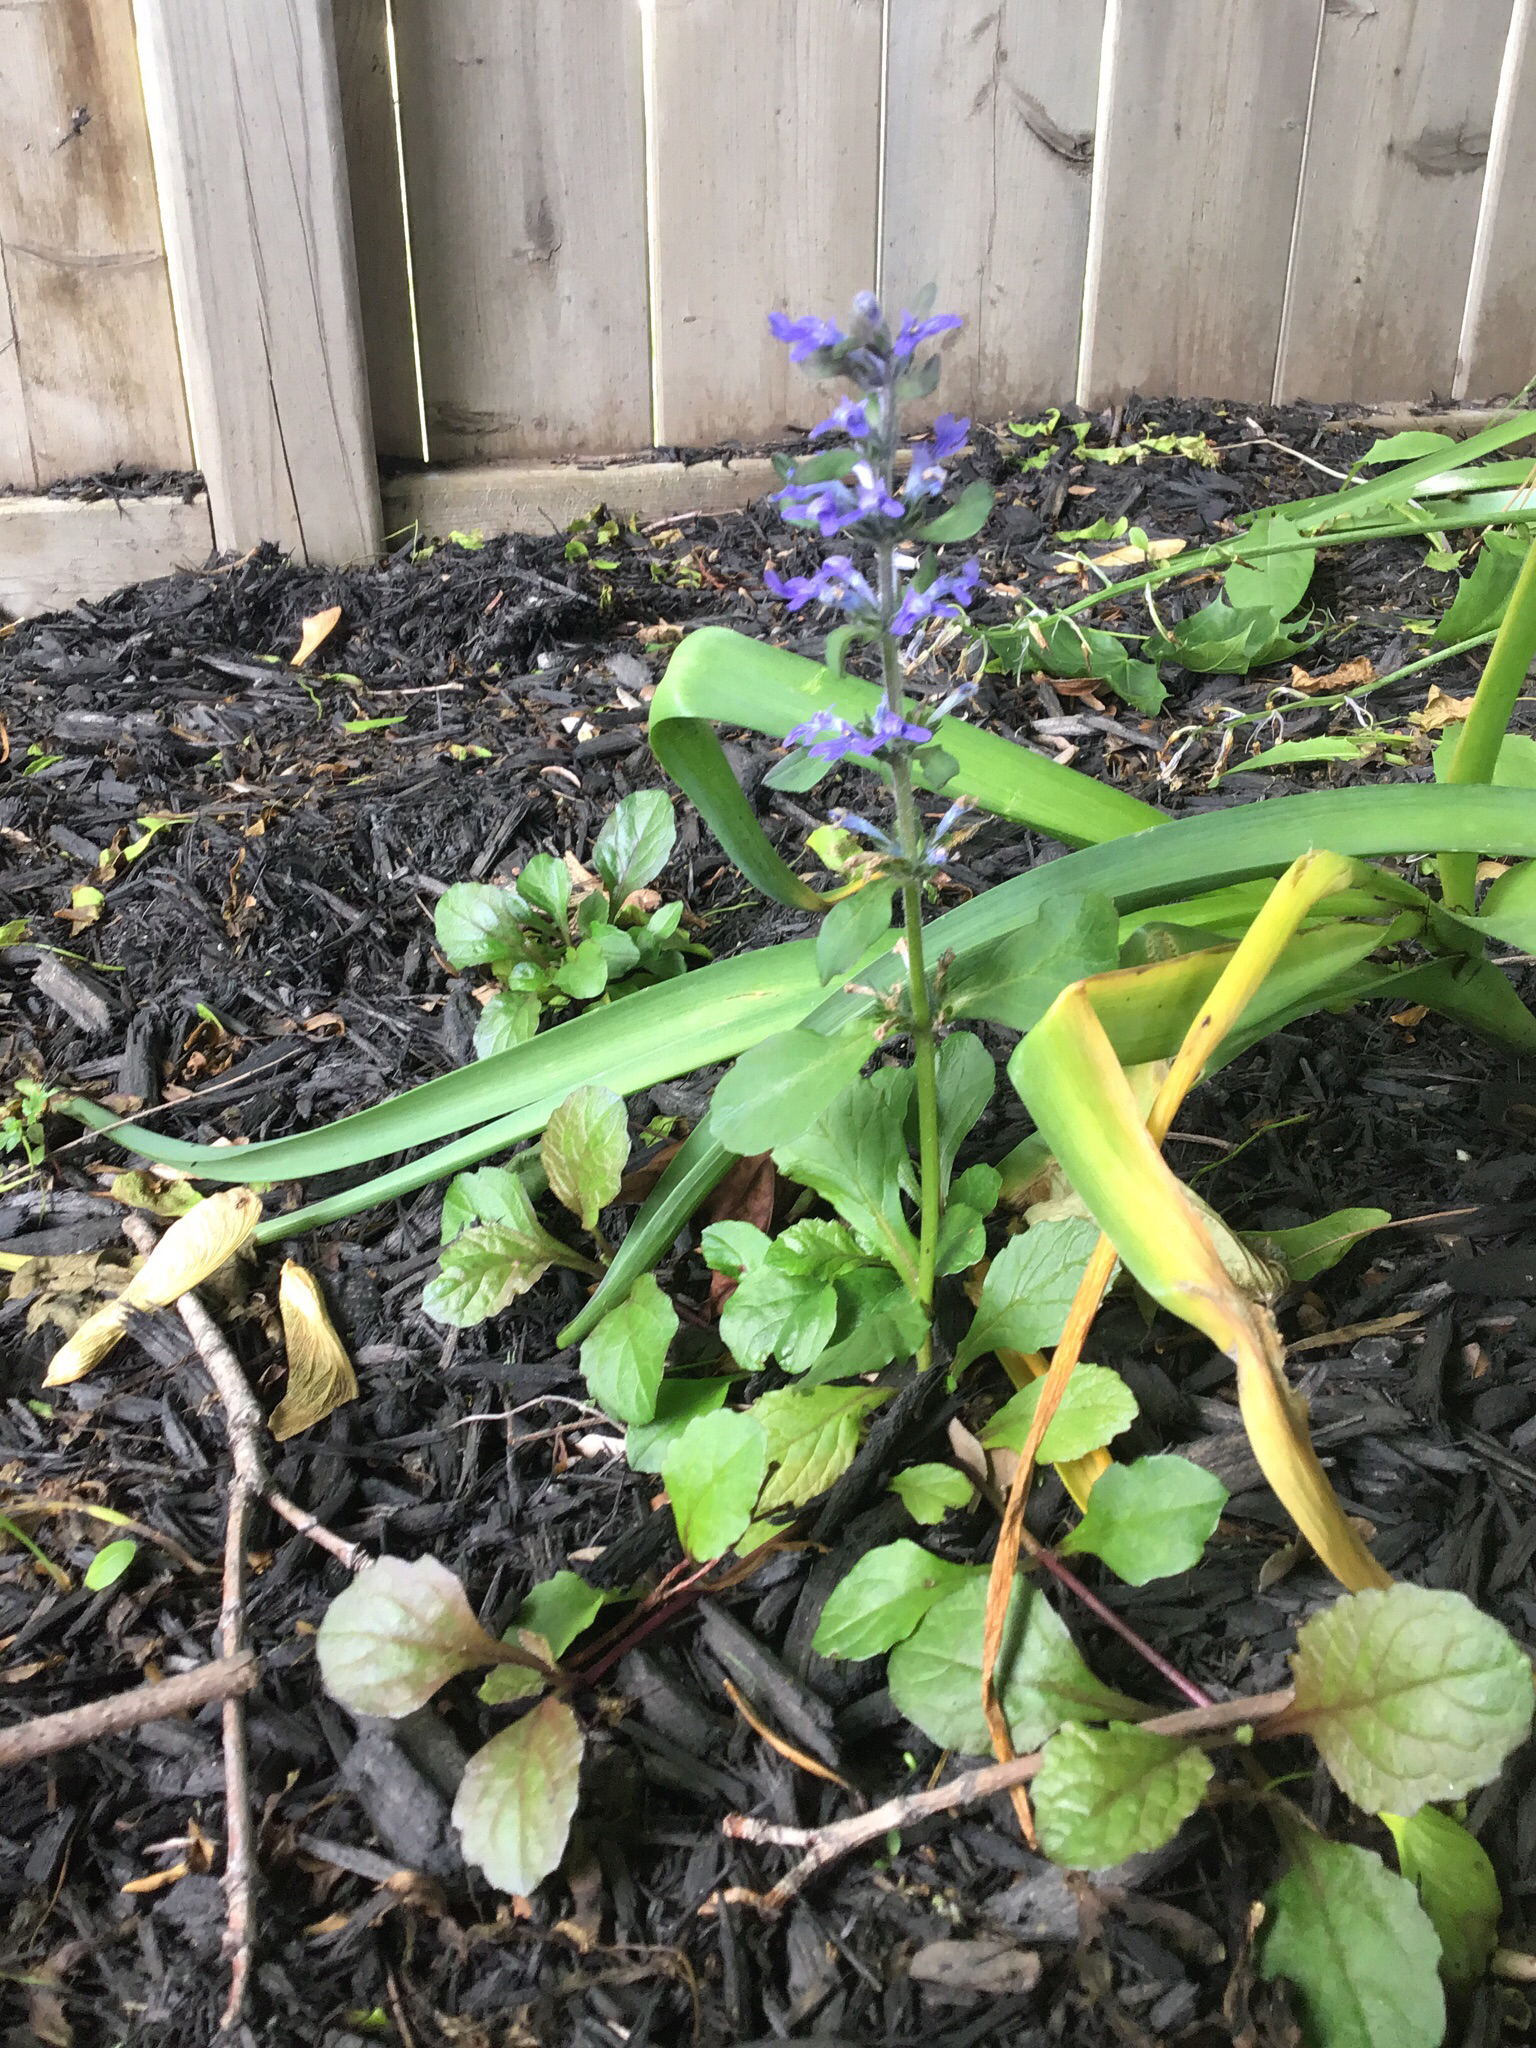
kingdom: Plantae
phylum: Tracheophyta
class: Magnoliopsida
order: Lamiales
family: Lamiaceae
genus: Ajuga
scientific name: Ajuga reptans
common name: Bugle
